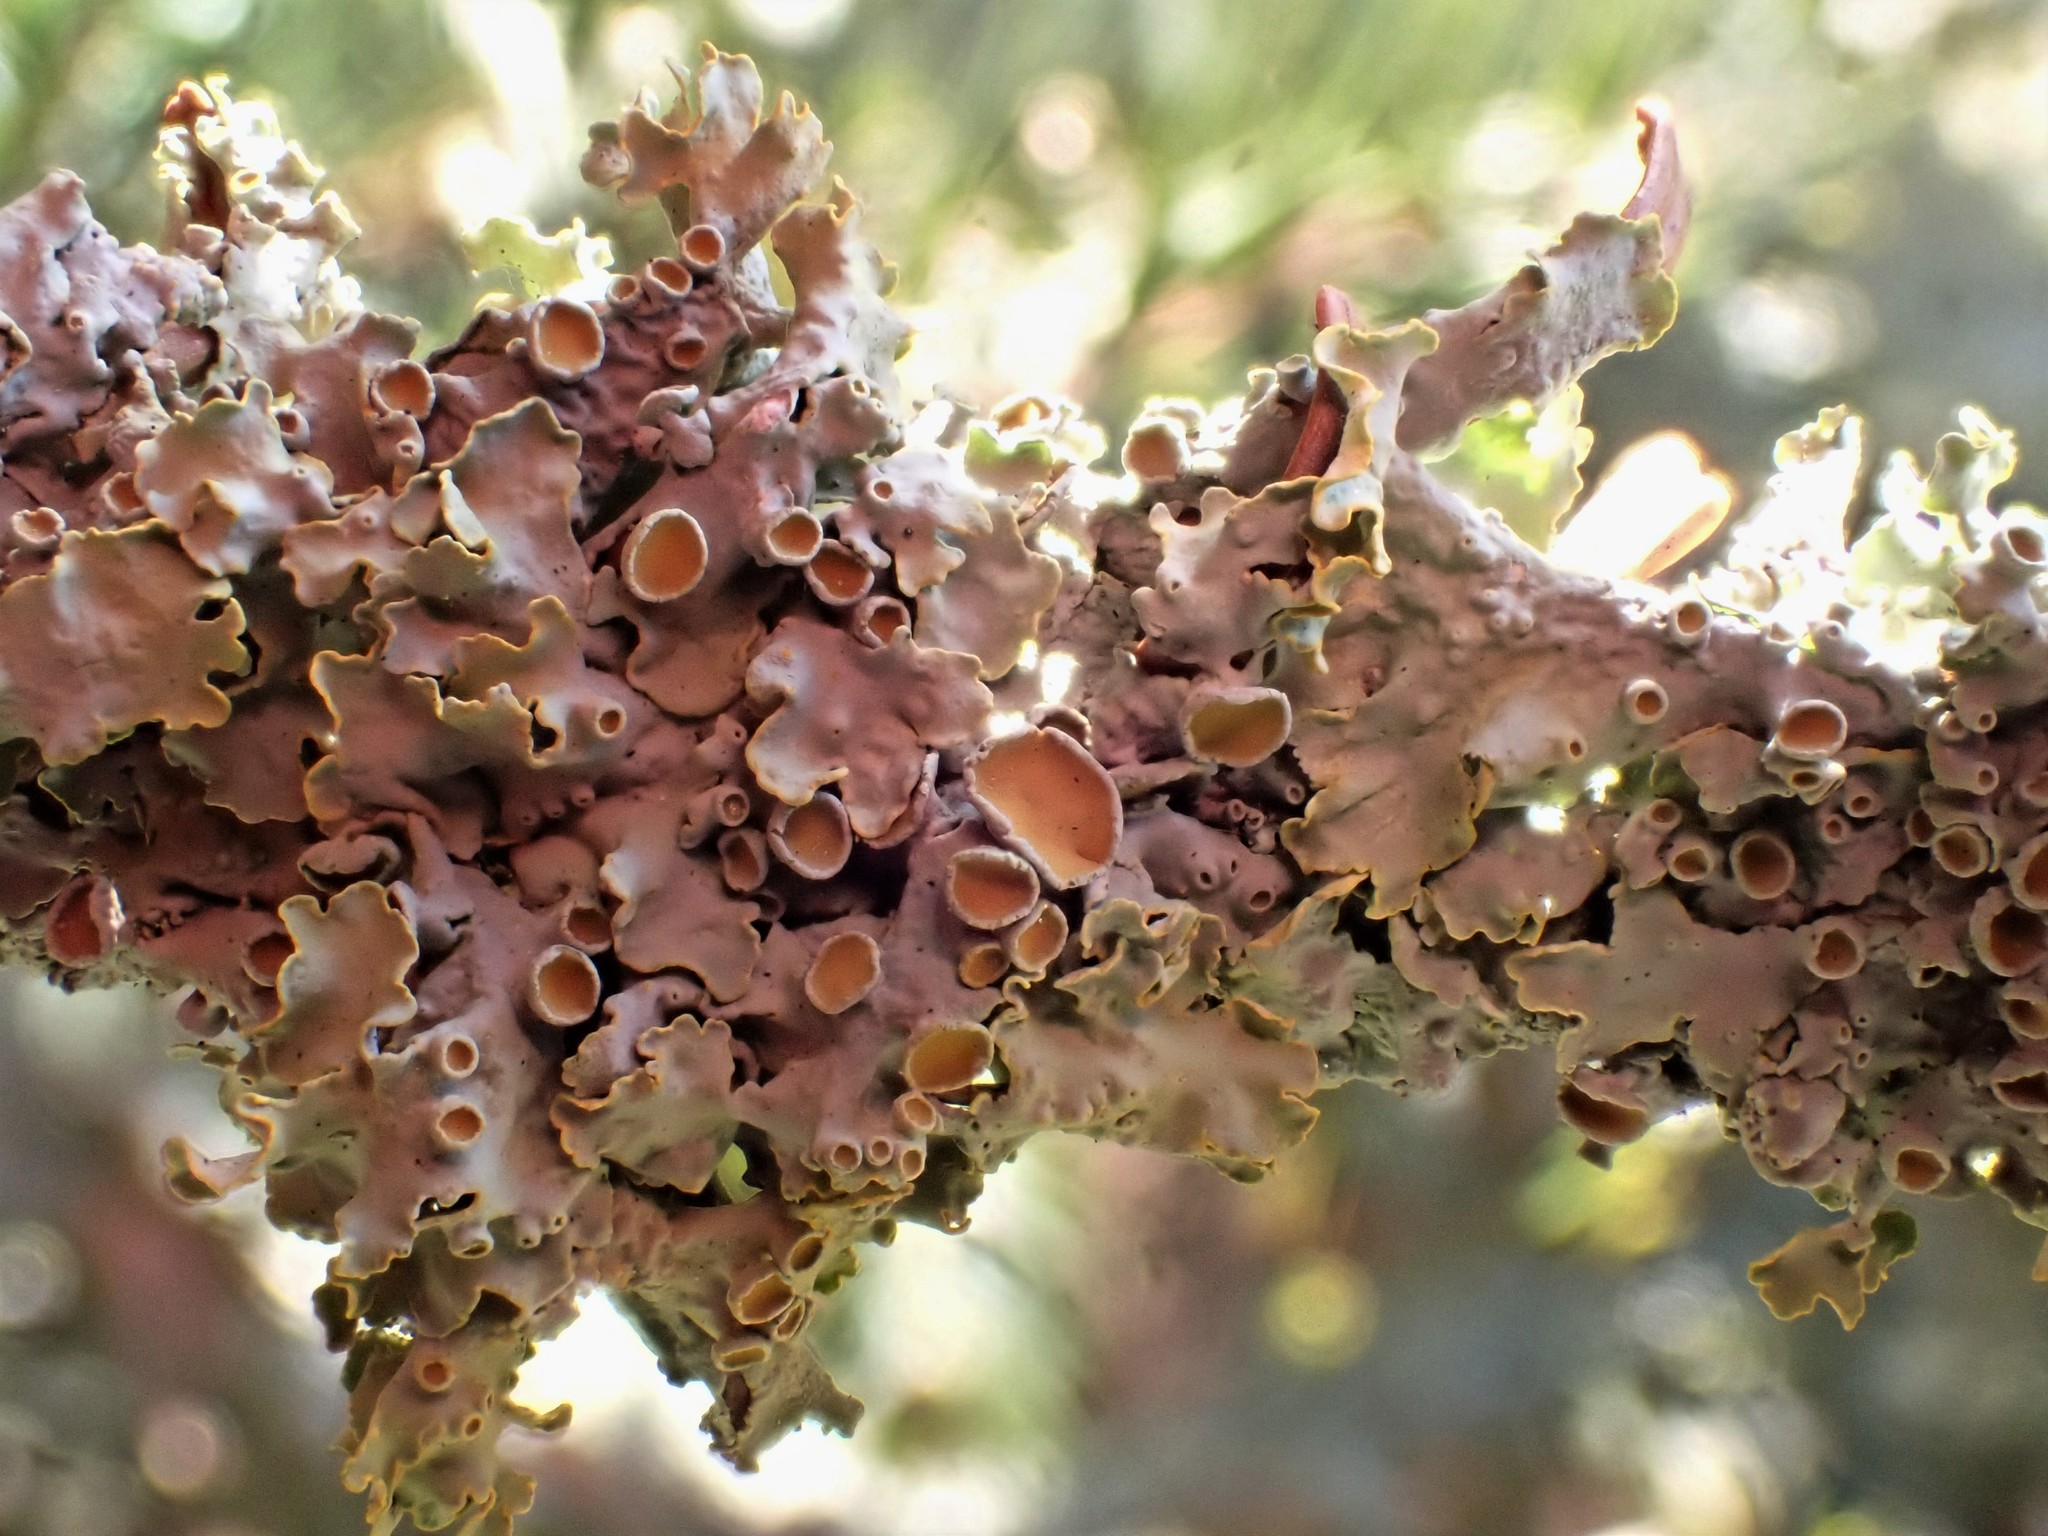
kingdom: Fungi
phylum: Ascomycota
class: Lecanoromycetes
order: Teloschistales
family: Teloschistaceae
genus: Xanthoria
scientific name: Xanthoria parietina
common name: Common orange lichen
